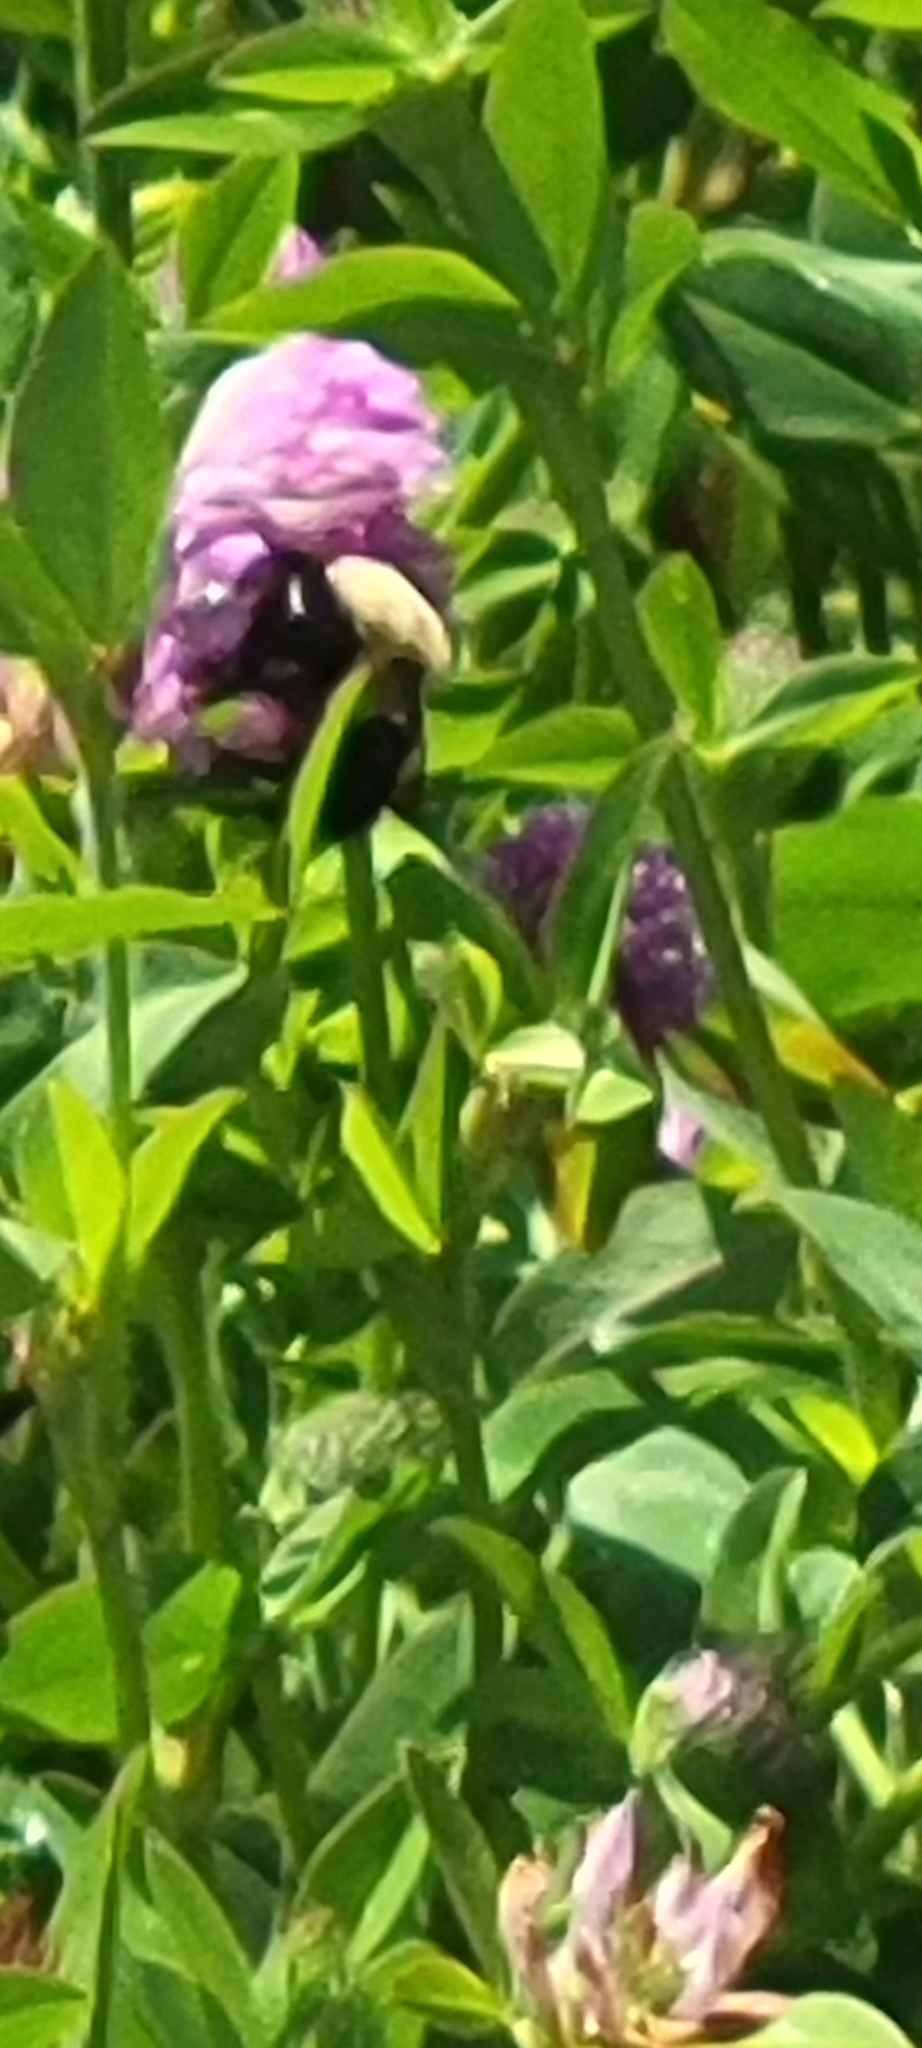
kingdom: Animalia
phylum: Arthropoda
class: Insecta
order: Hymenoptera
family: Apidae
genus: Bombus
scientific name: Bombus griseocollis
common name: Brown-belted bumble bee
